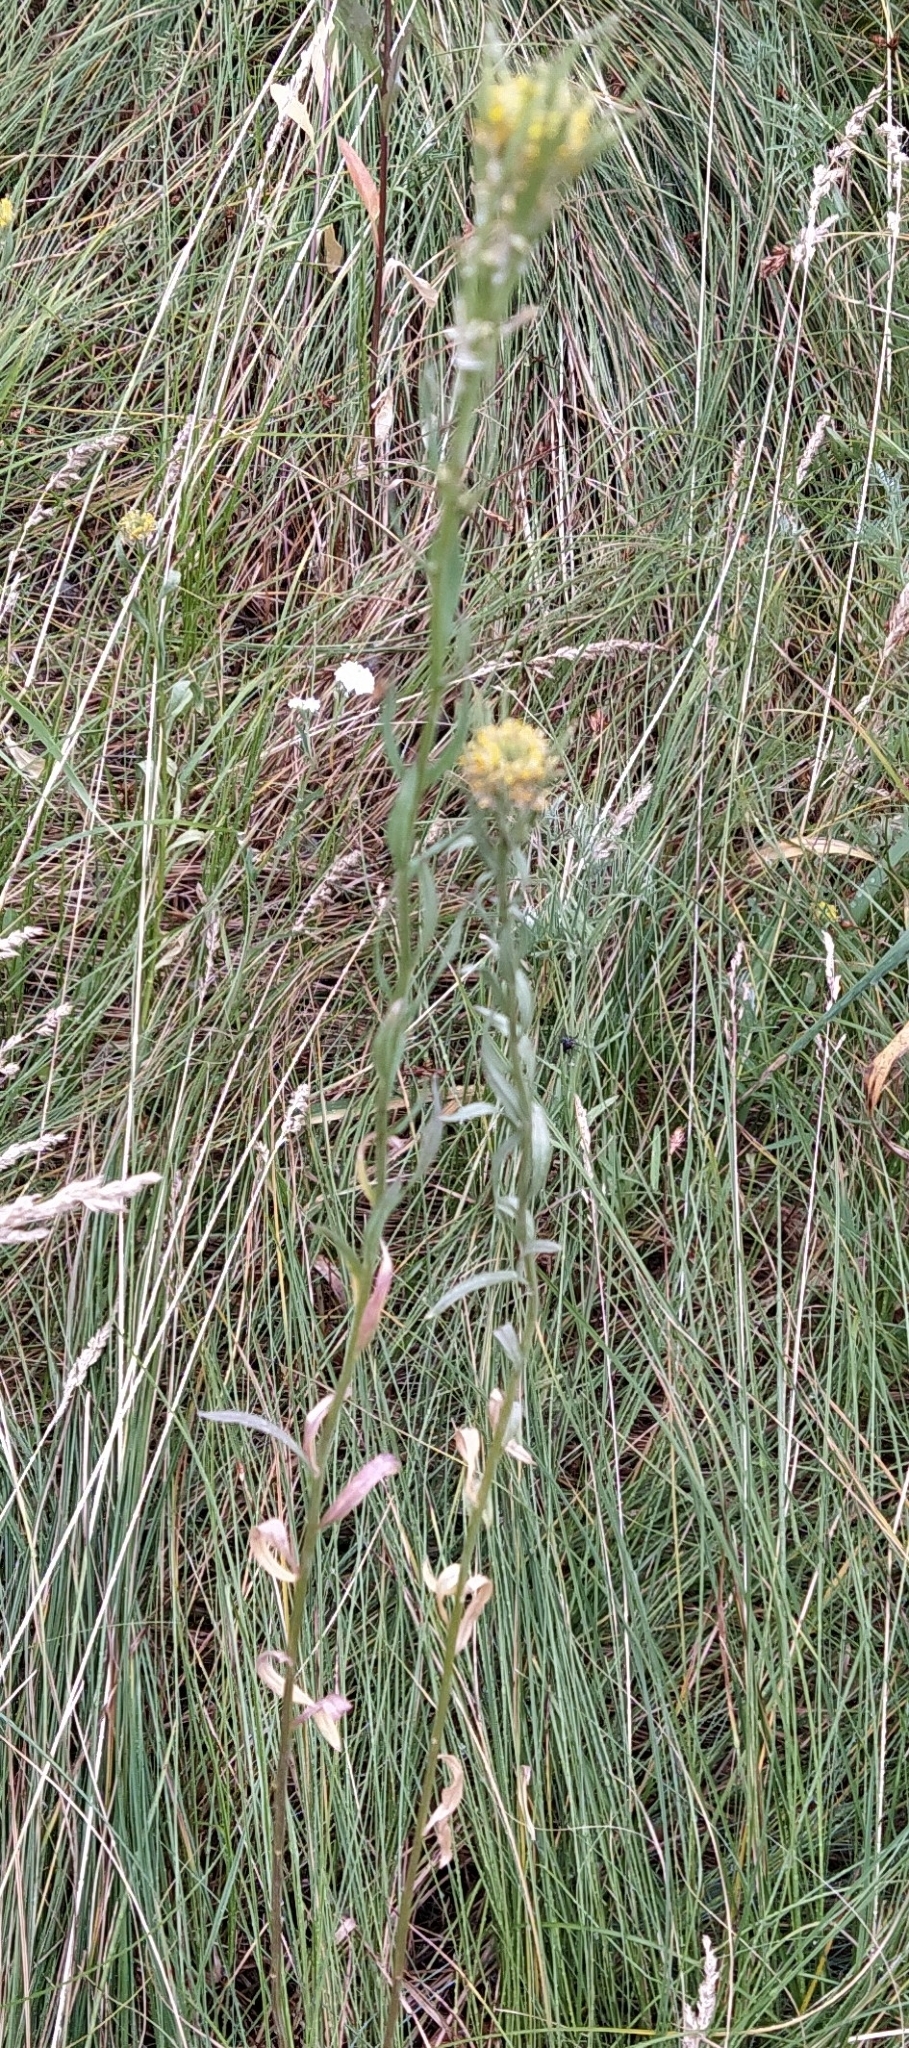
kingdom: Plantae
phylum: Tracheophyta
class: Magnoliopsida
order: Brassicales
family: Brassicaceae
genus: Erysimum
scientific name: Erysimum cheiranthoides
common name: Treacle mustard
